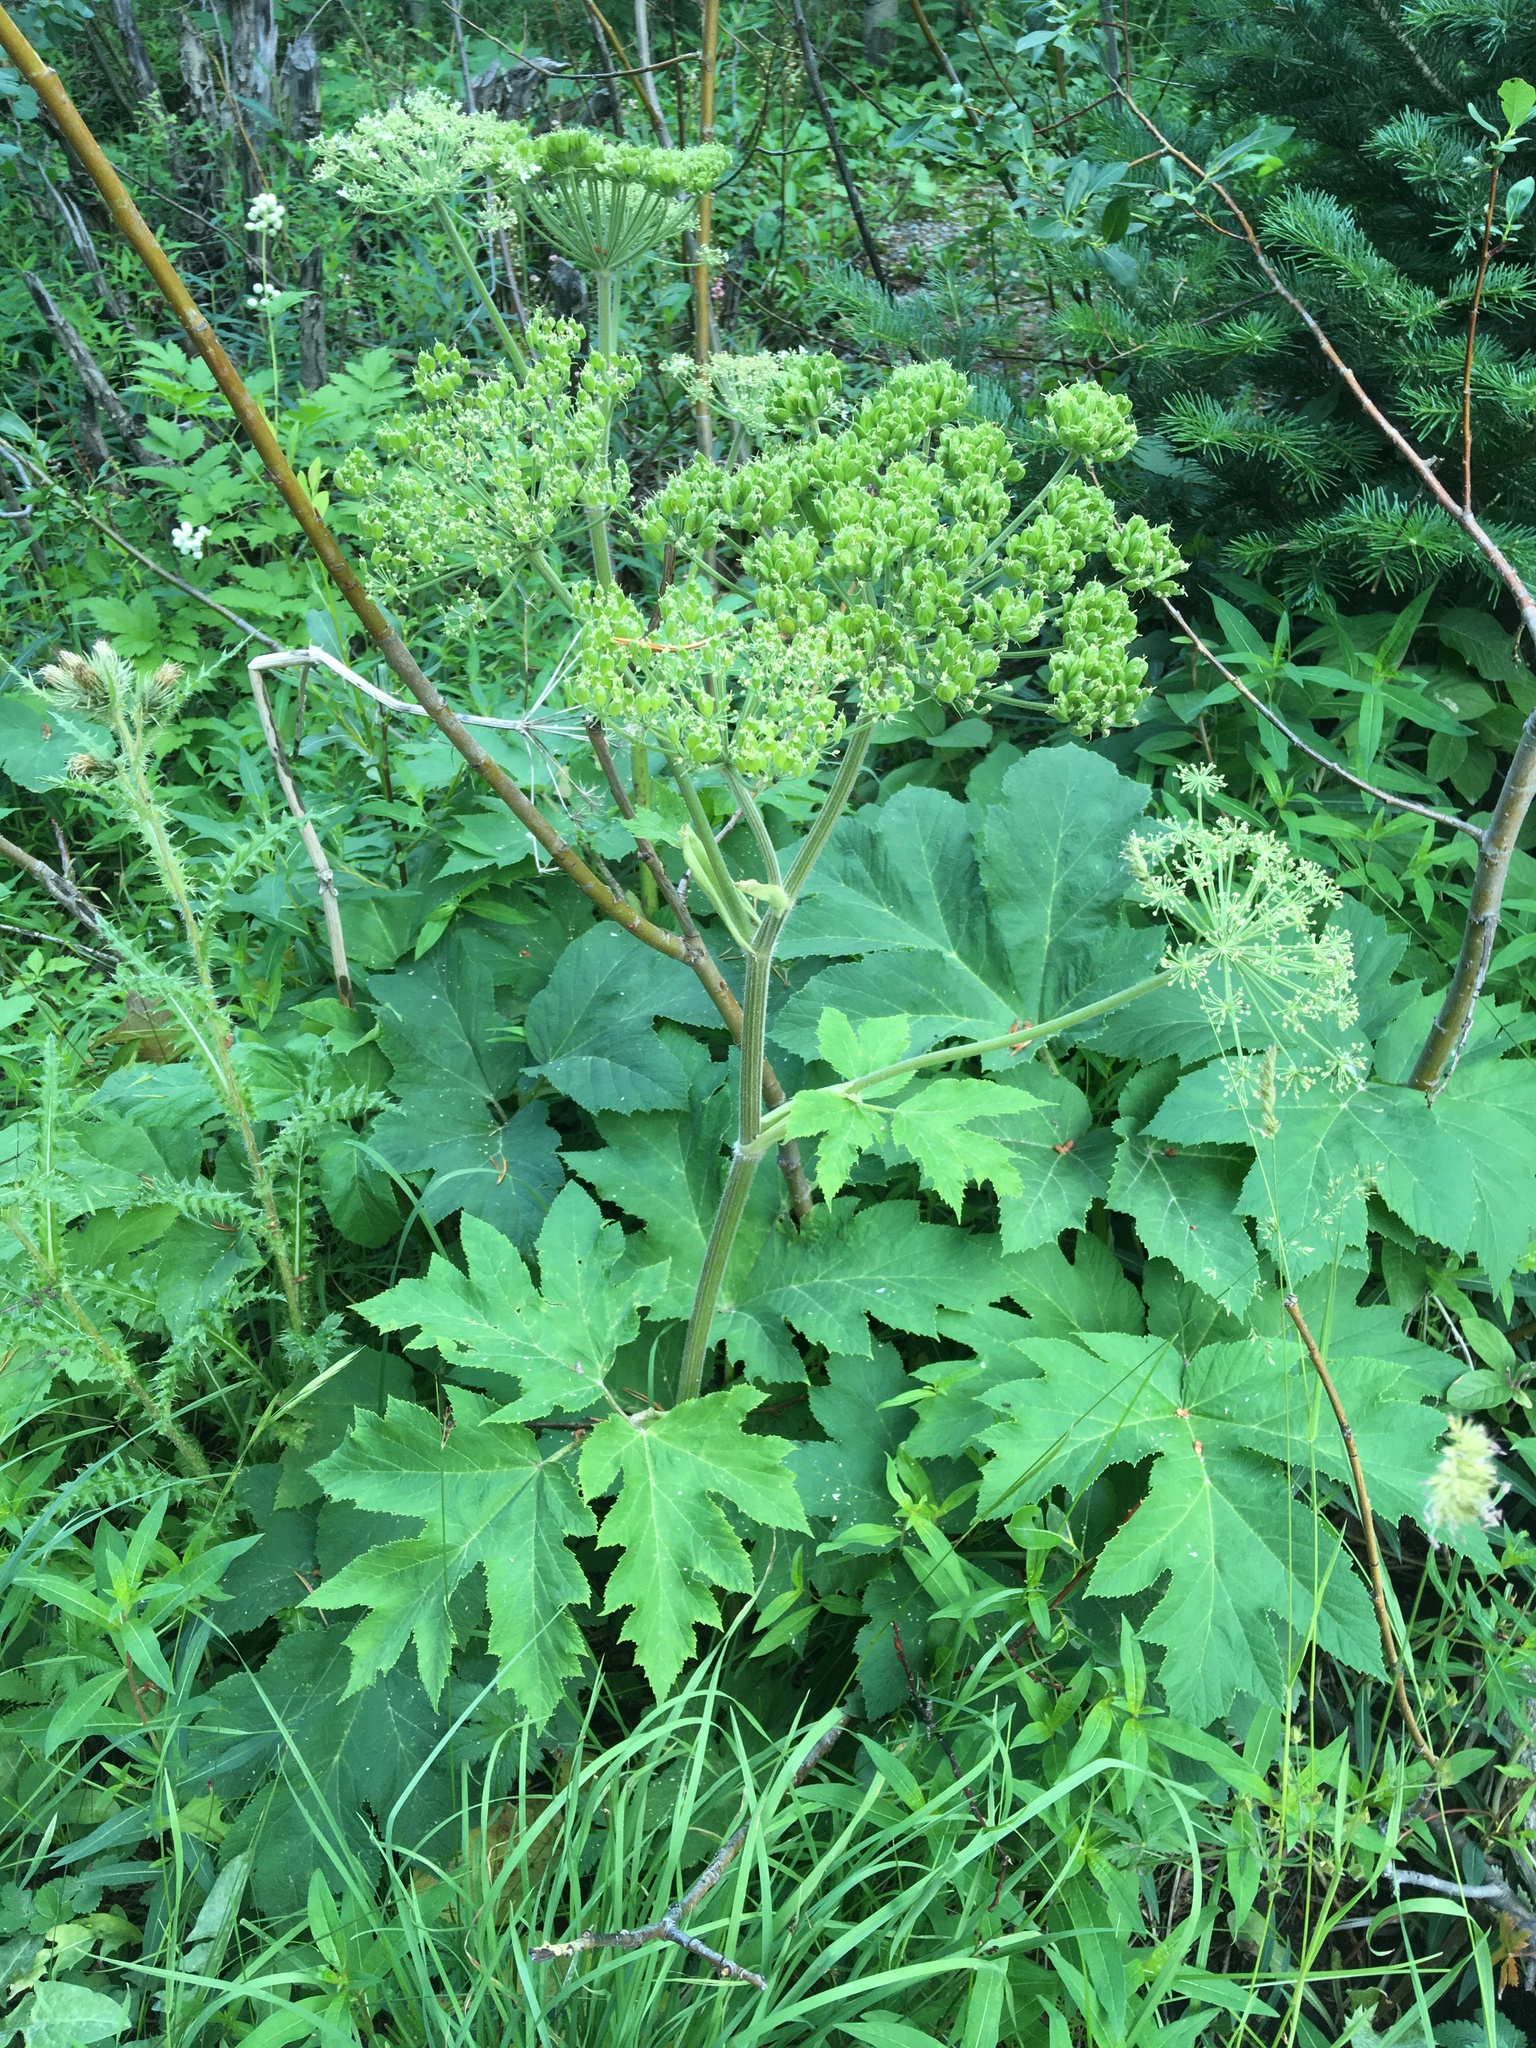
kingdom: Plantae
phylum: Tracheophyta
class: Magnoliopsida
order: Apiales
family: Apiaceae
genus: Heracleum
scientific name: Heracleum maximum
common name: American cow parsnip
